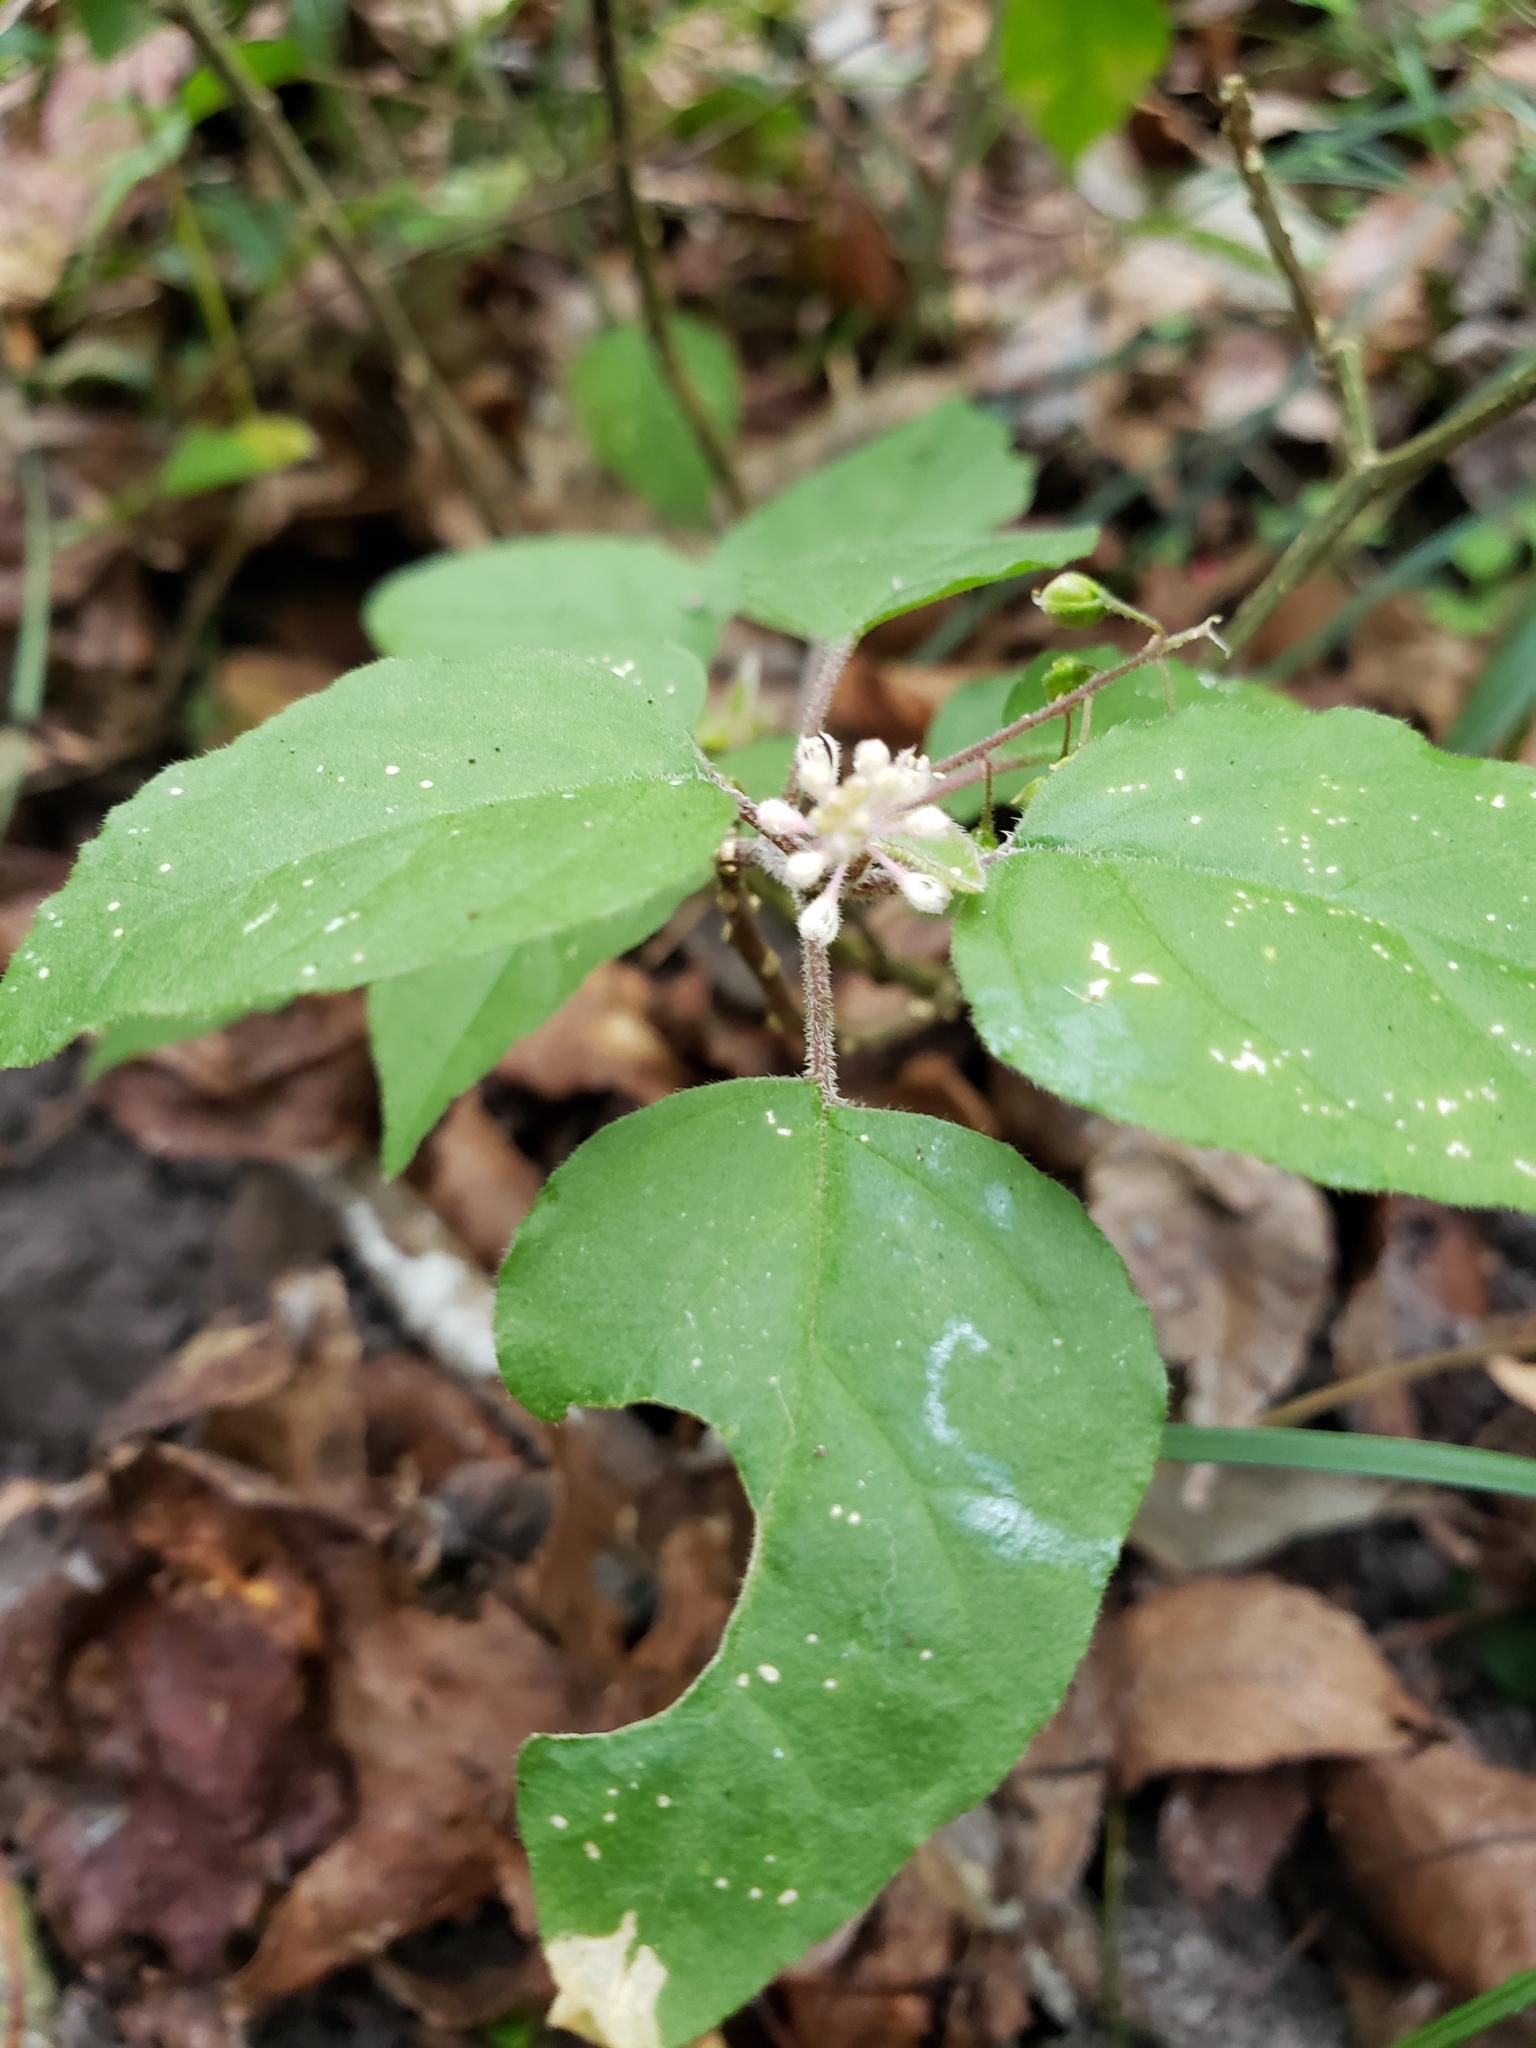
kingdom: Plantae
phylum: Tracheophyta
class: Magnoliopsida
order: Caryophyllales
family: Phytolaccaceae
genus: Rivina
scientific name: Rivina humilis
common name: Rougeplant
